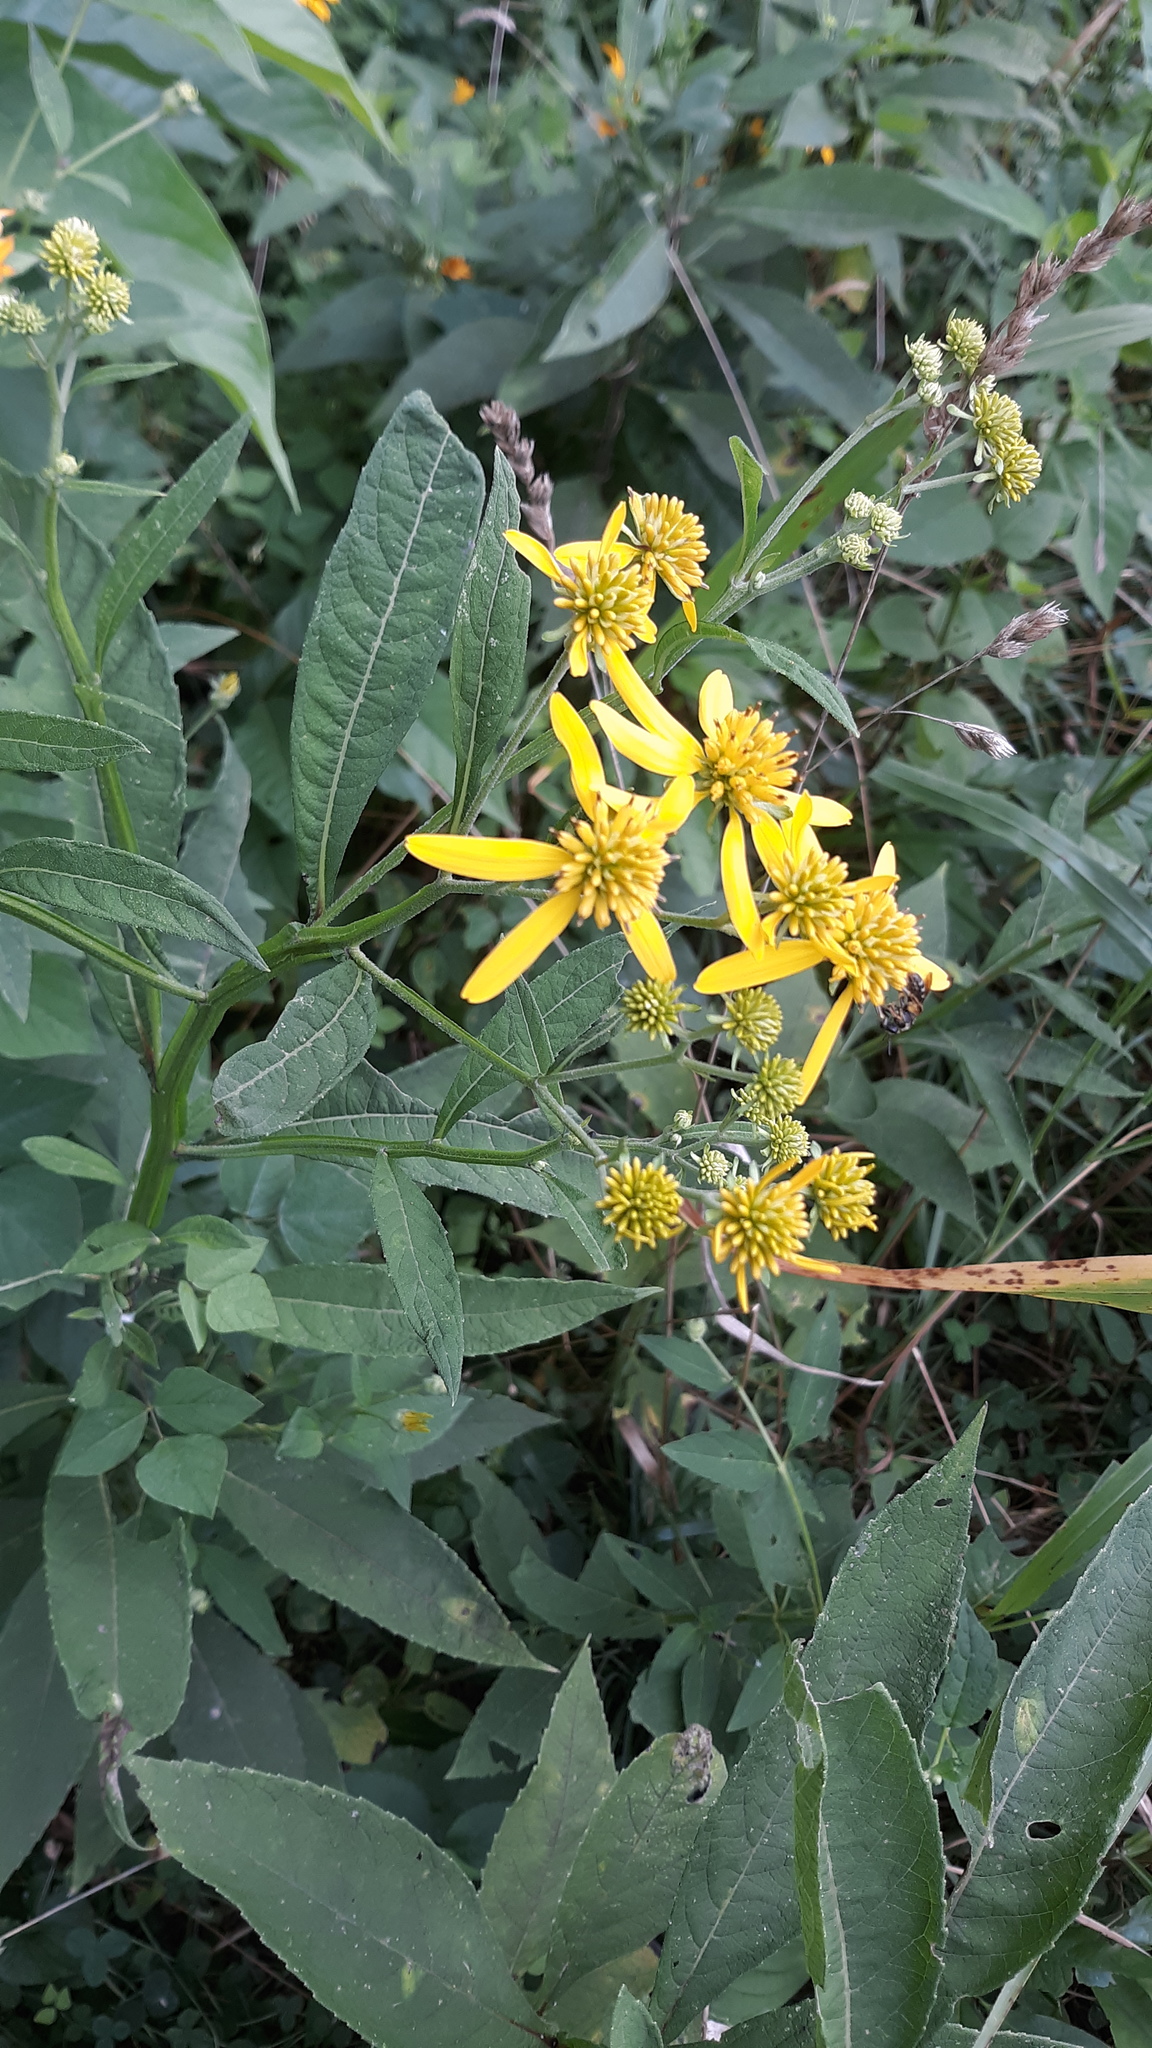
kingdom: Plantae
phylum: Tracheophyta
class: Magnoliopsida
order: Asterales
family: Asteraceae
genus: Verbesina
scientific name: Verbesina alternifolia
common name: Wingstem
